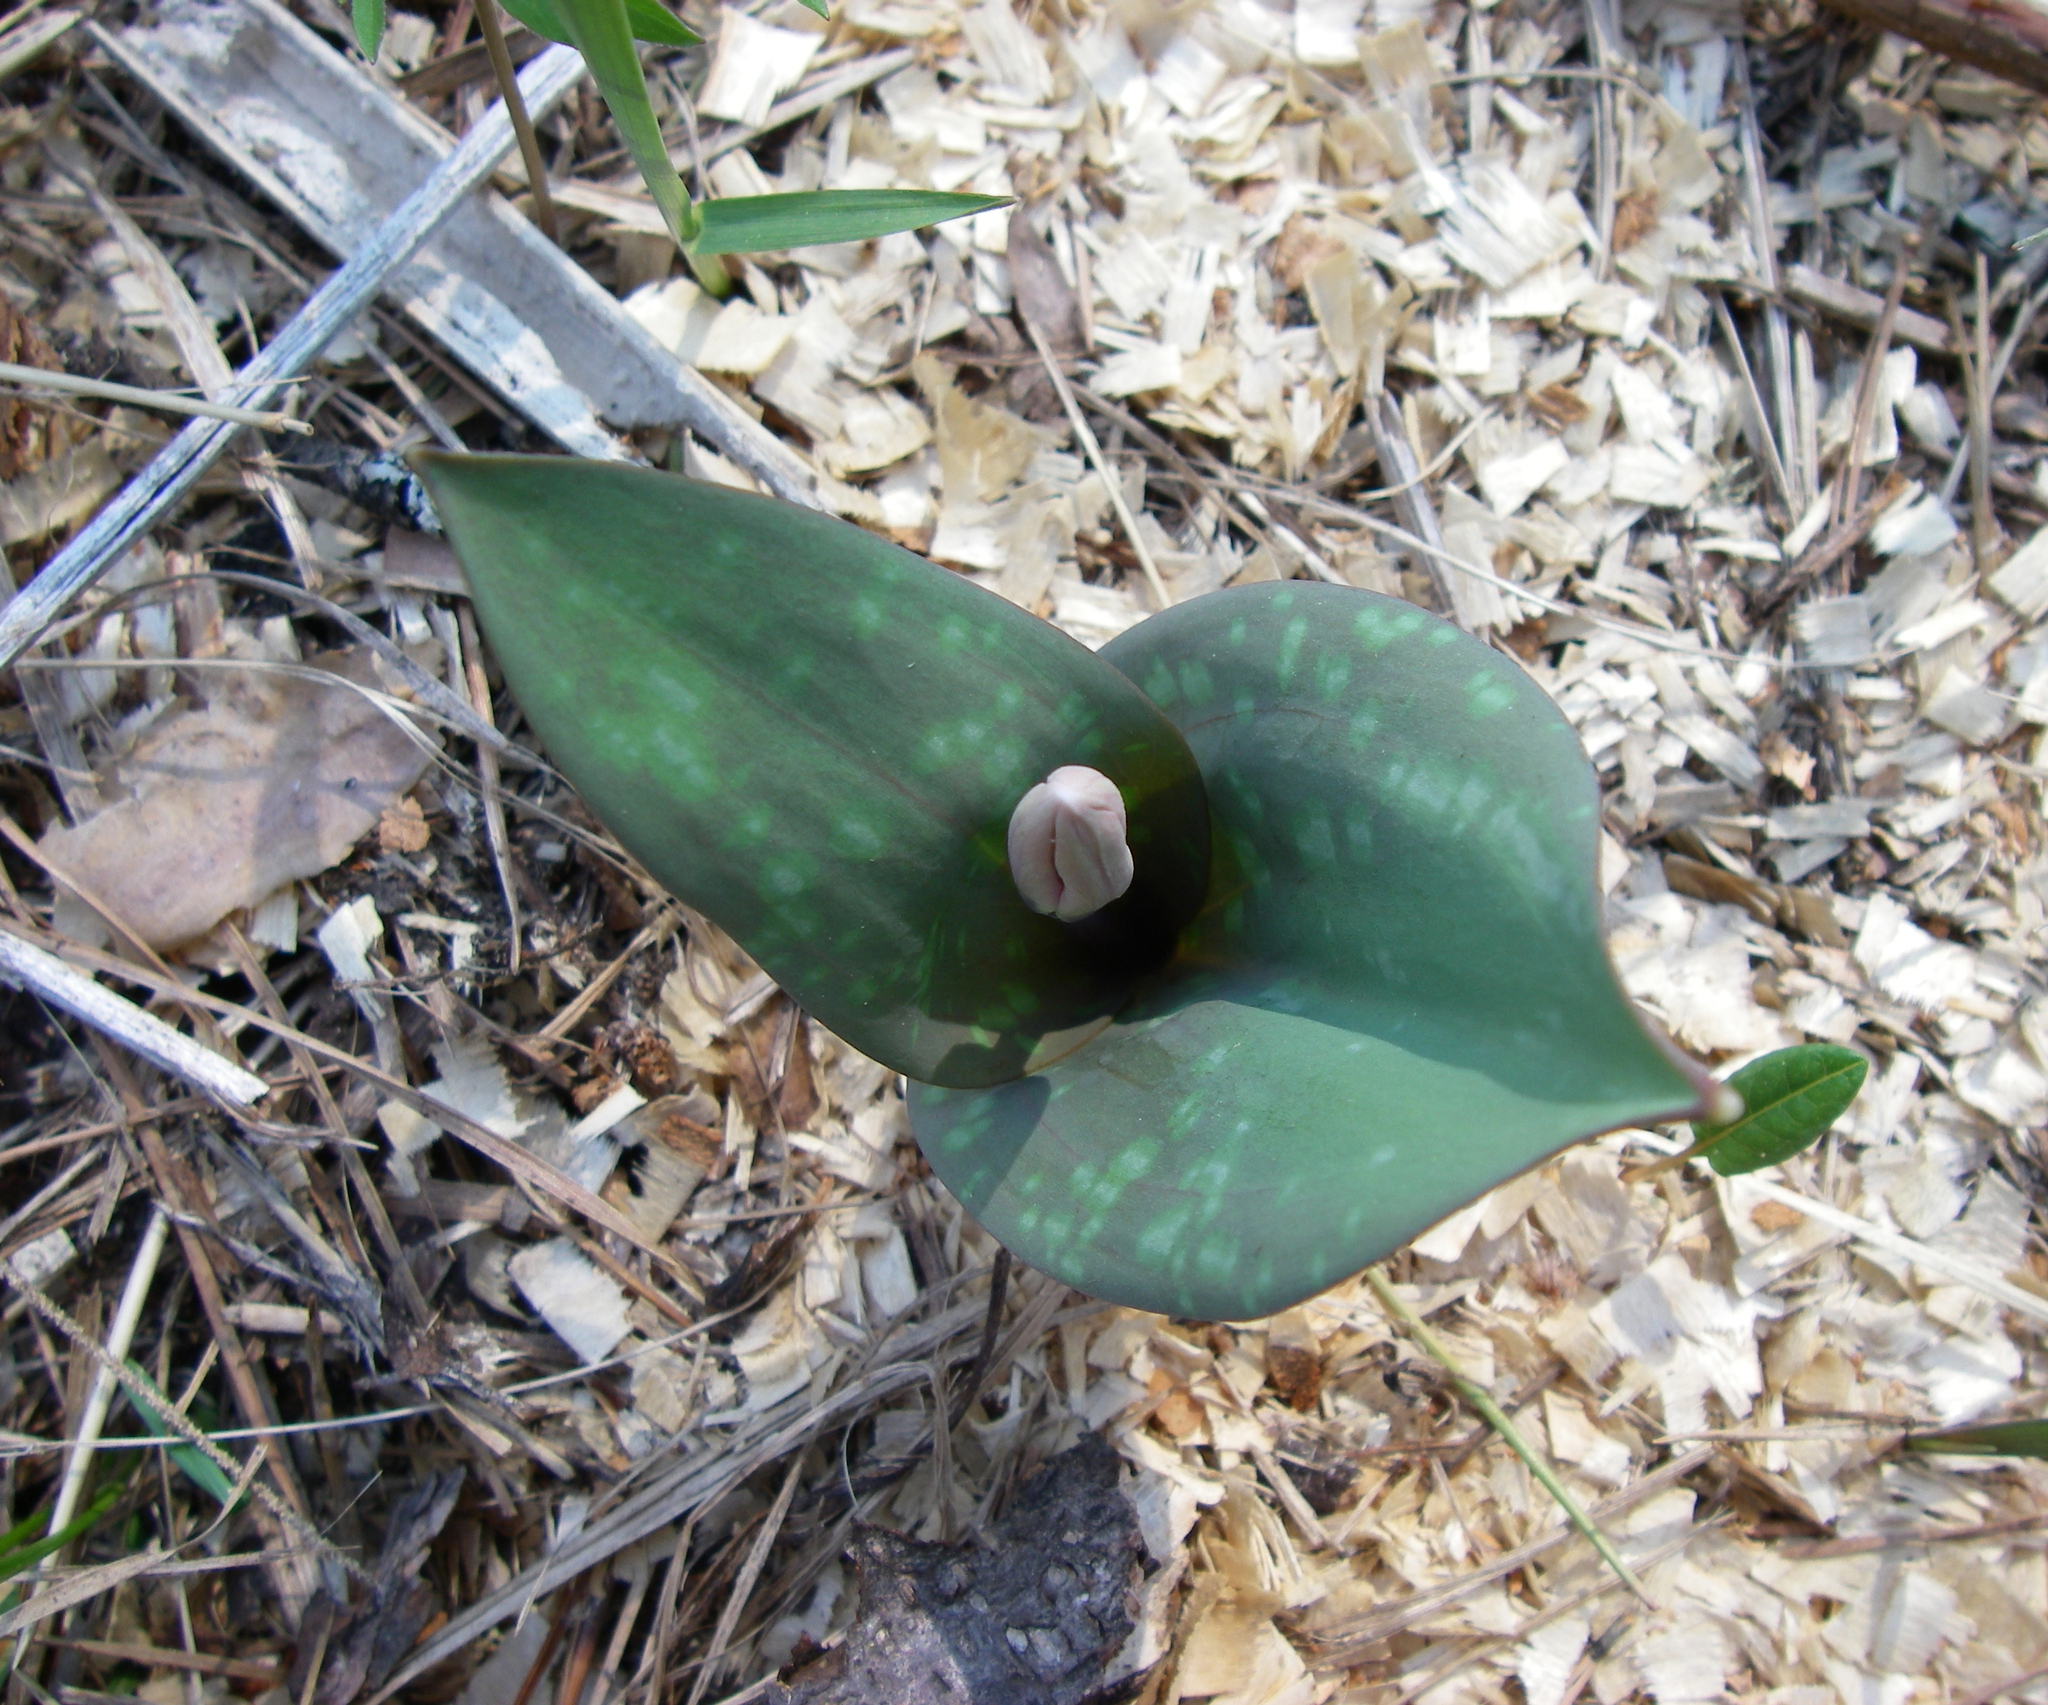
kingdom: Plantae
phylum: Tracheophyta
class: Liliopsida
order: Liliales
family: Liliaceae
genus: Erythronium
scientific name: Erythronium sibiricum
